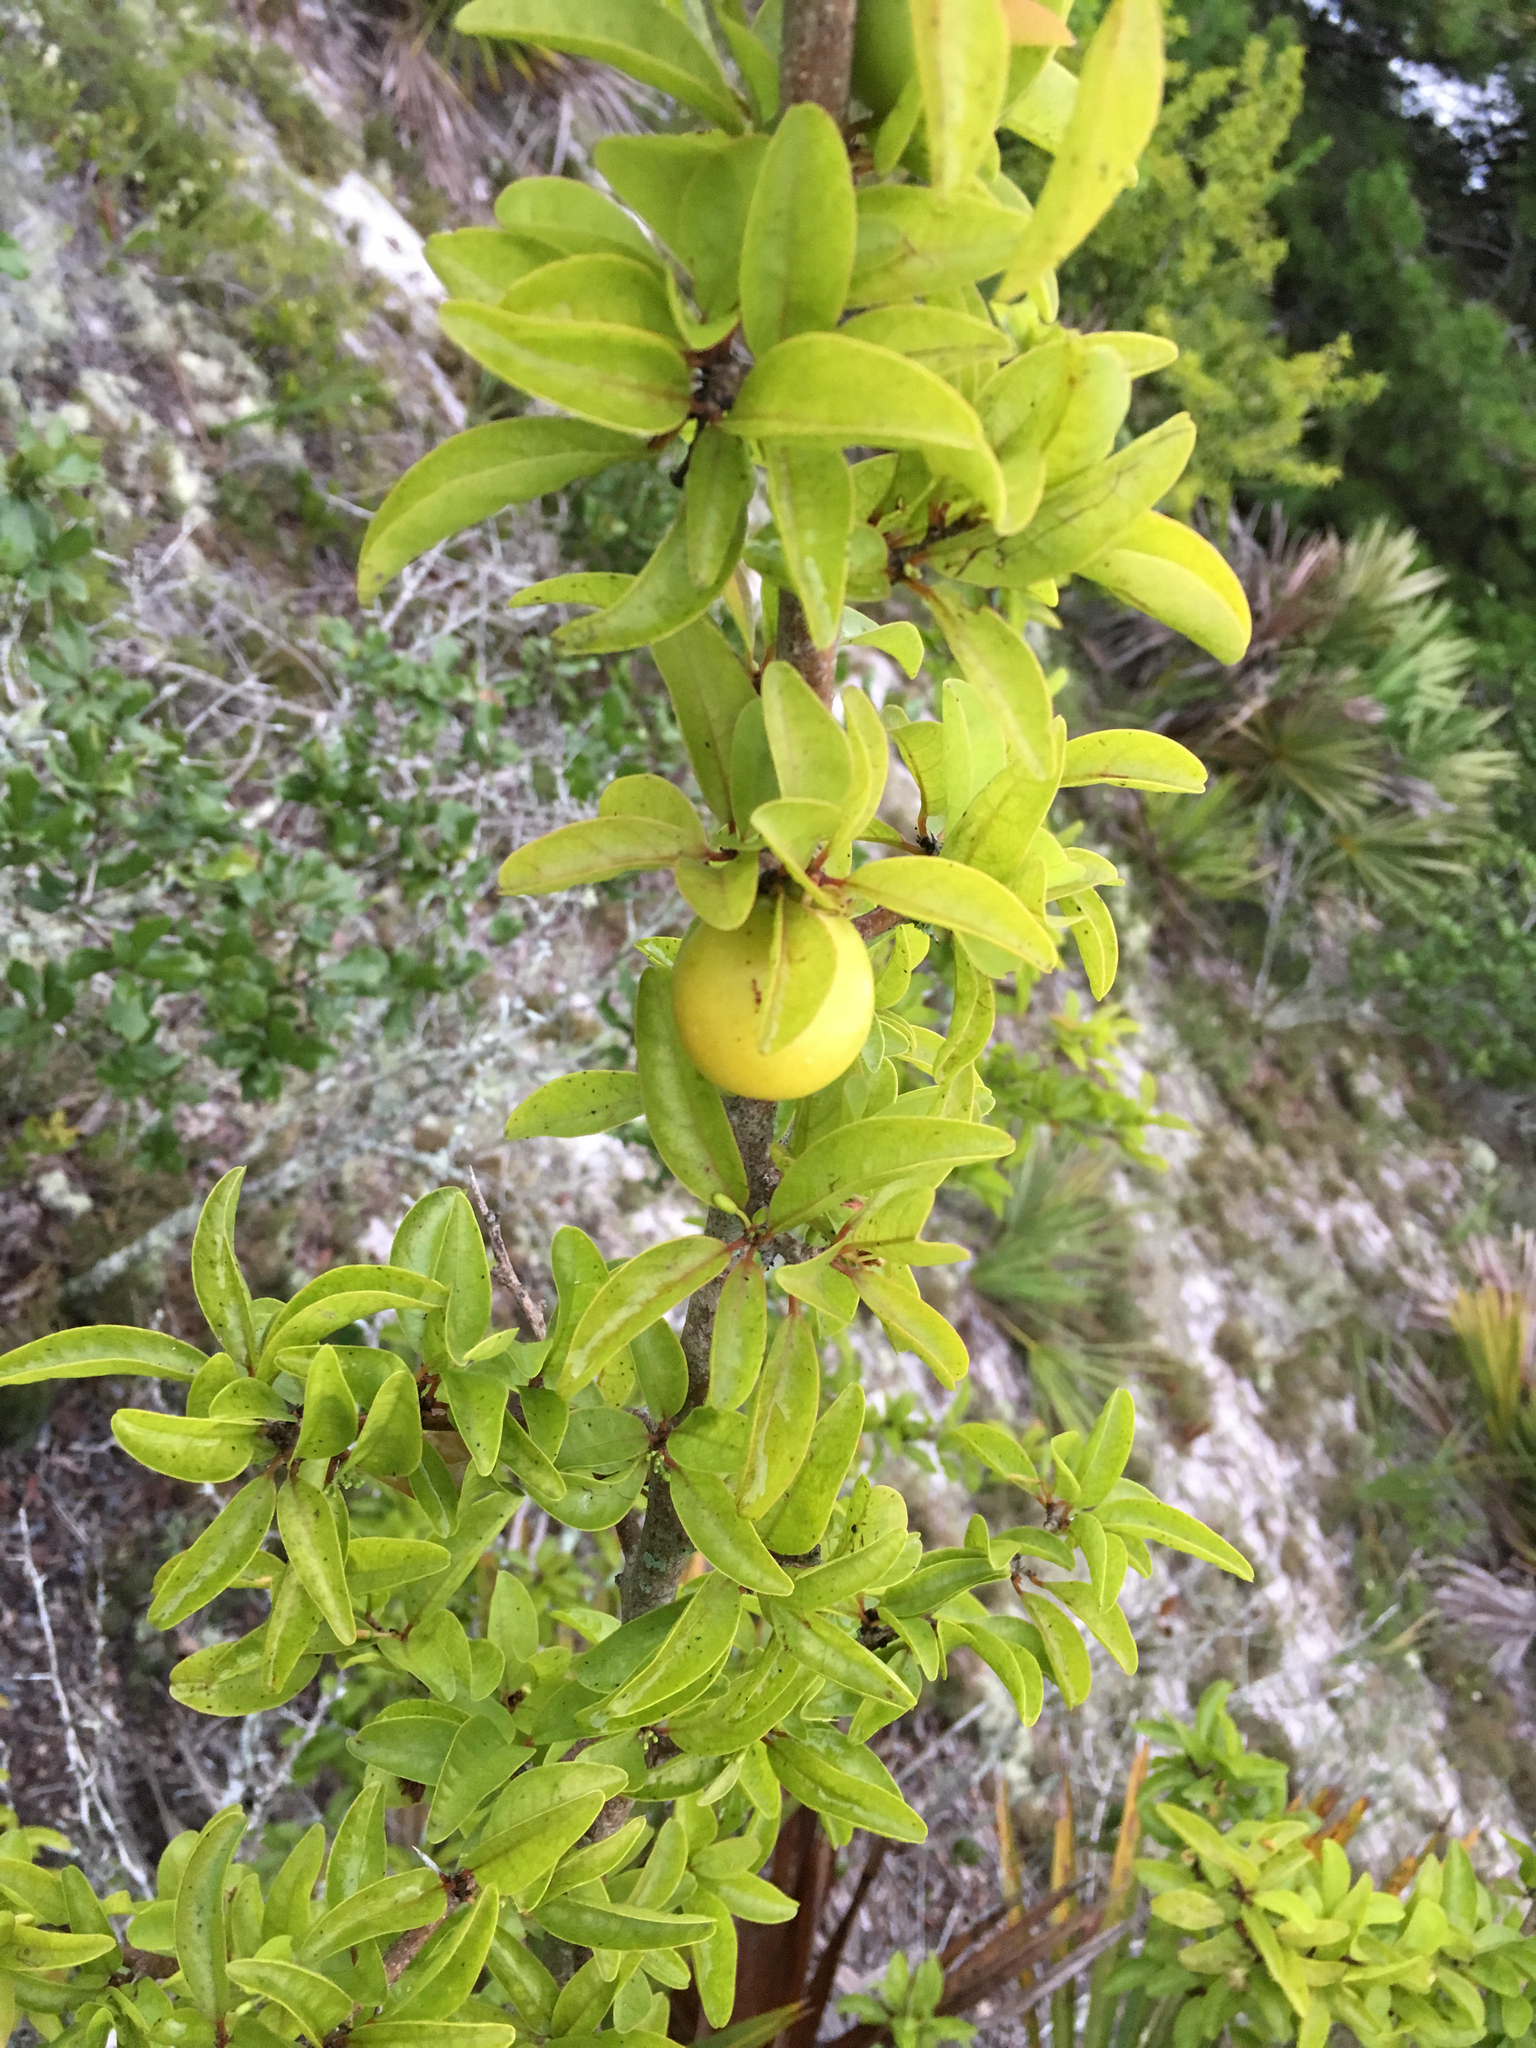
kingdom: Plantae
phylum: Tracheophyta
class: Magnoliopsida
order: Santalales
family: Ximeniaceae
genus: Ximenia
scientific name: Ximenia americana
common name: Tallowwood
